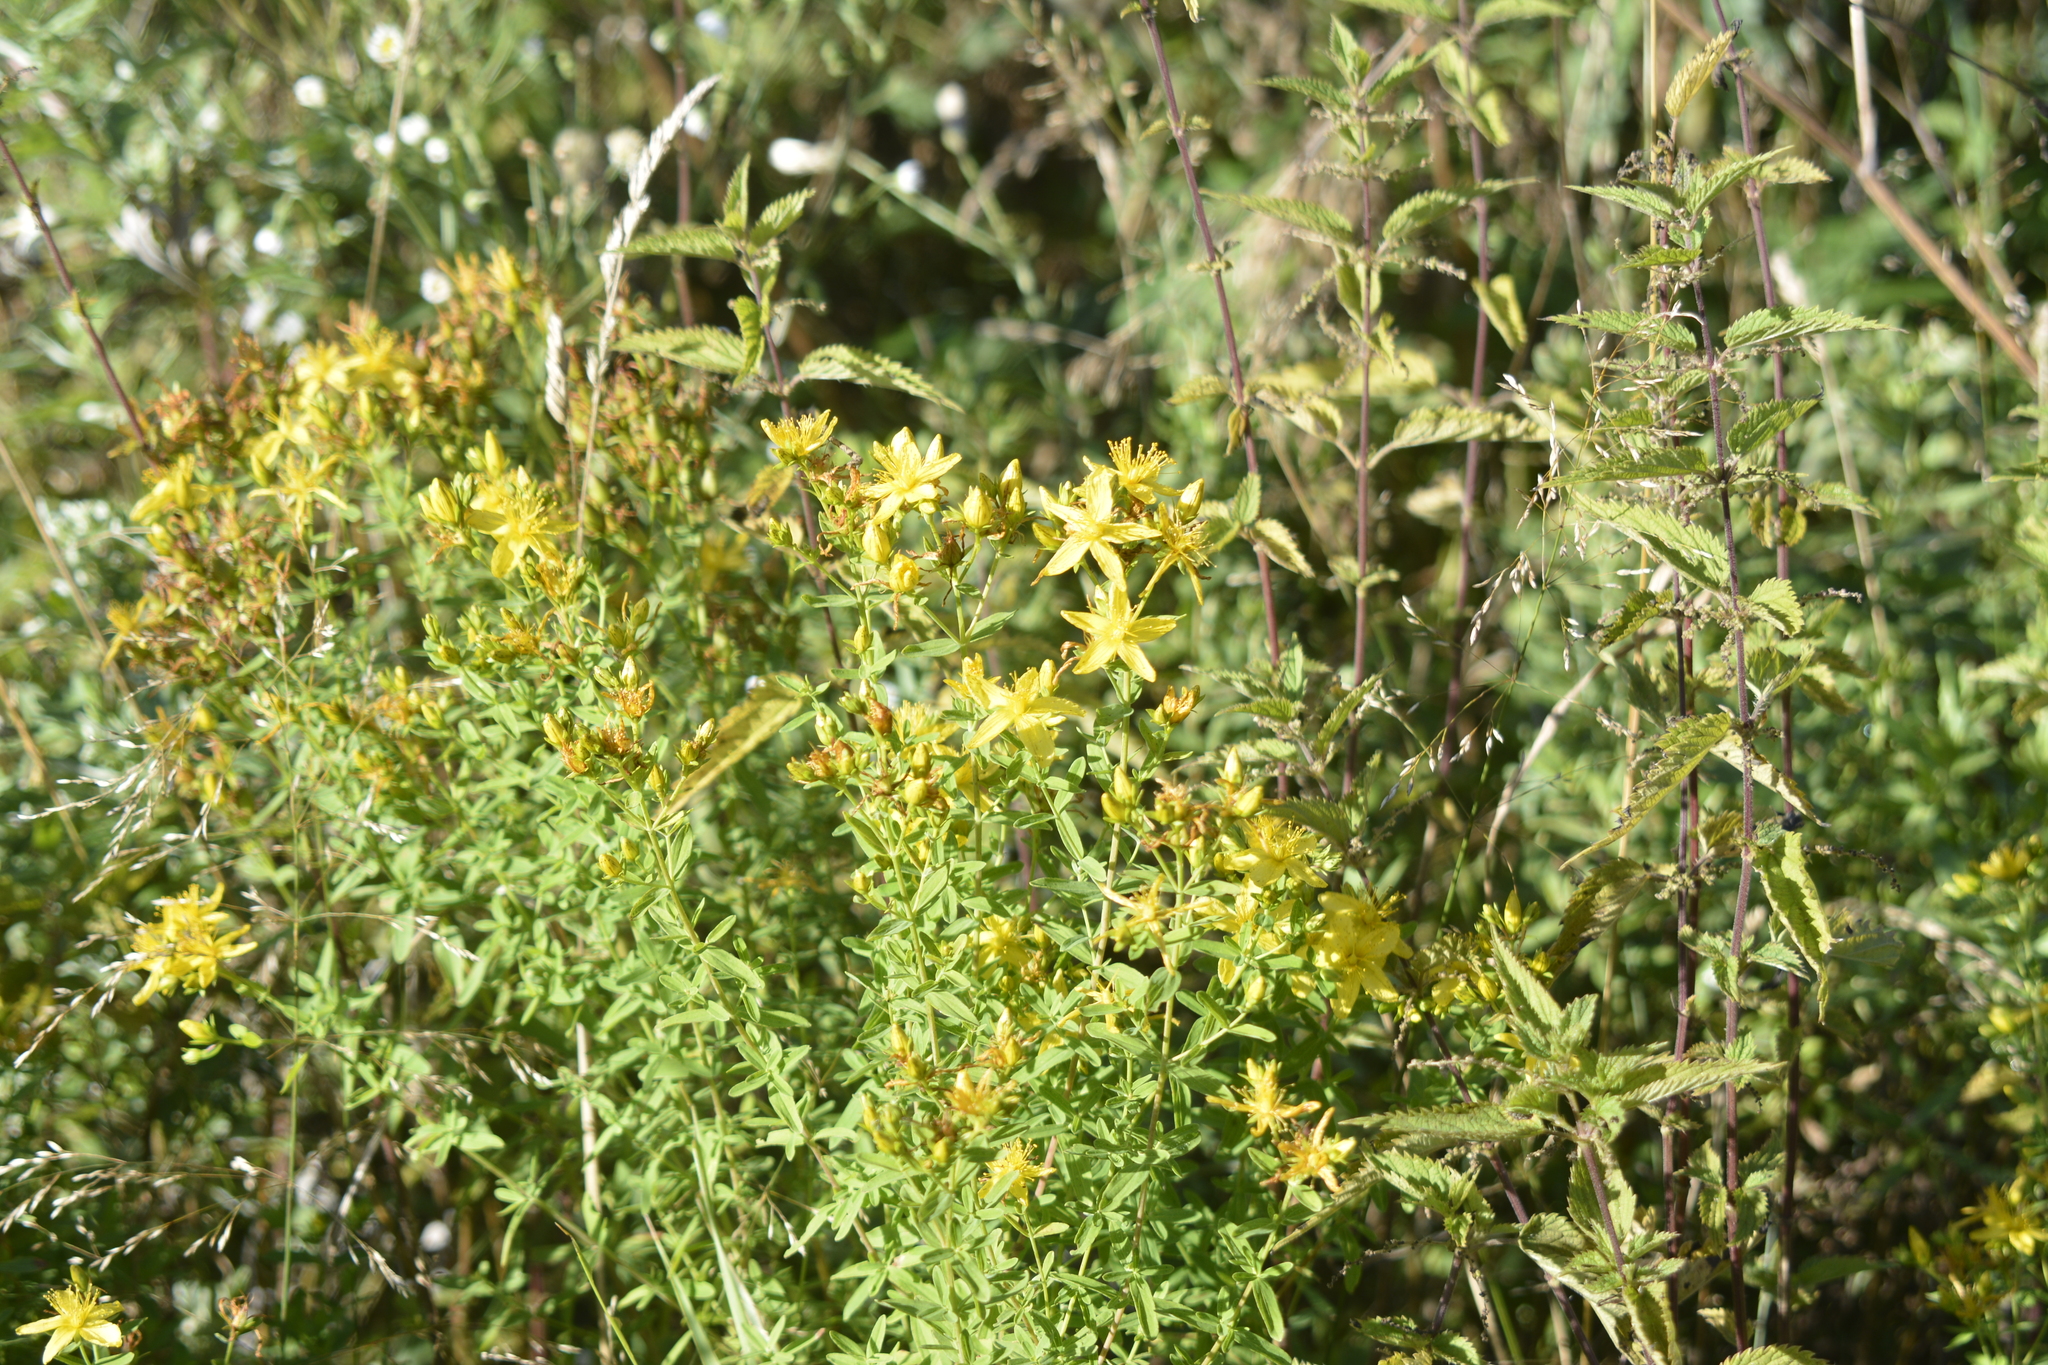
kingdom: Plantae
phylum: Tracheophyta
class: Magnoliopsida
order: Malpighiales
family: Hypericaceae
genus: Hypericum
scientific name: Hypericum perforatum
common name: Common st. johnswort
